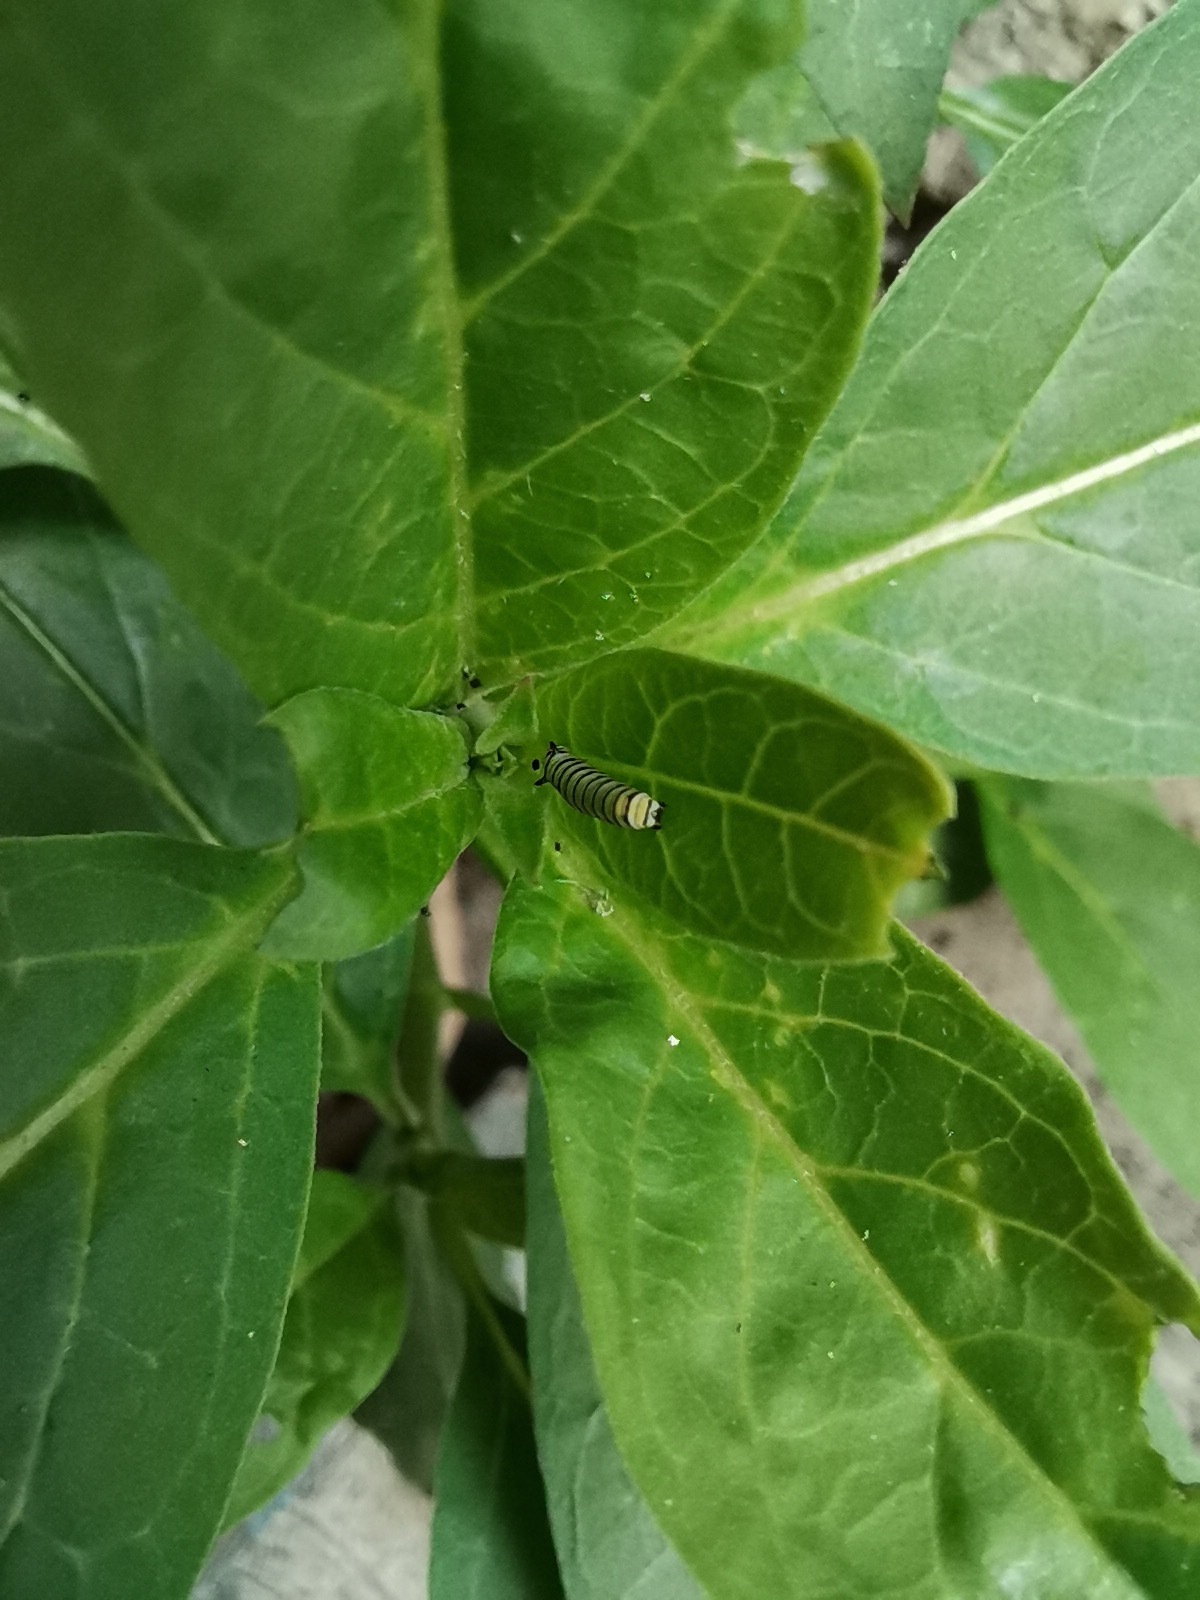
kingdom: Animalia
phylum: Arthropoda
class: Insecta
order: Lepidoptera
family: Nymphalidae
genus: Danaus
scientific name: Danaus plexippus
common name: Monarch
